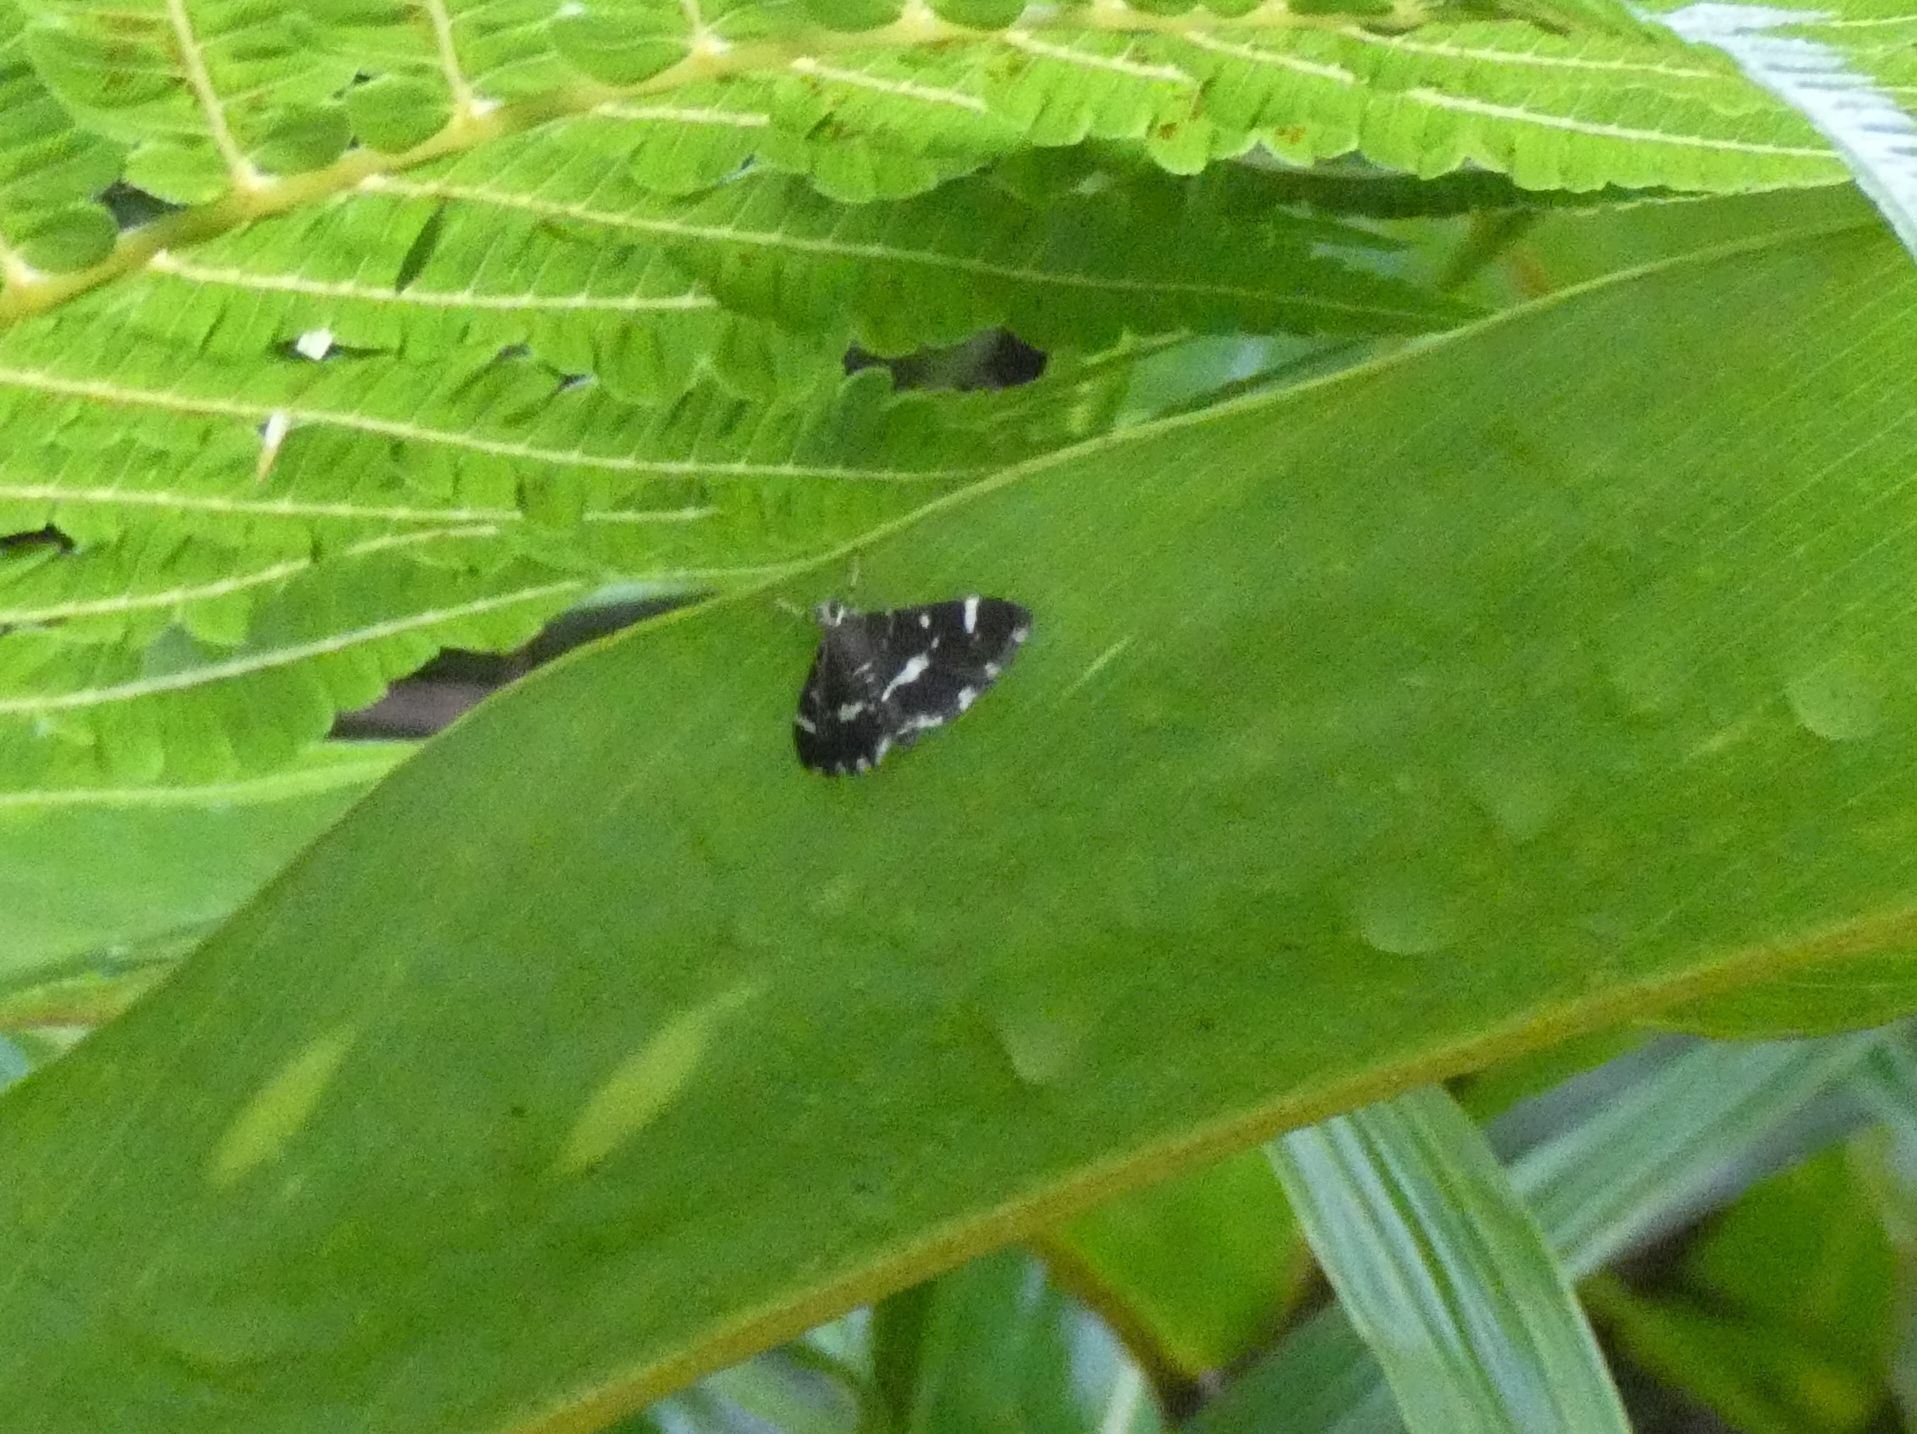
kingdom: Animalia
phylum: Arthropoda
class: Insecta
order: Lepidoptera
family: Crambidae
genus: Hymenia
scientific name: Hymenia perspectalis
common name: Spotted beet webworm
